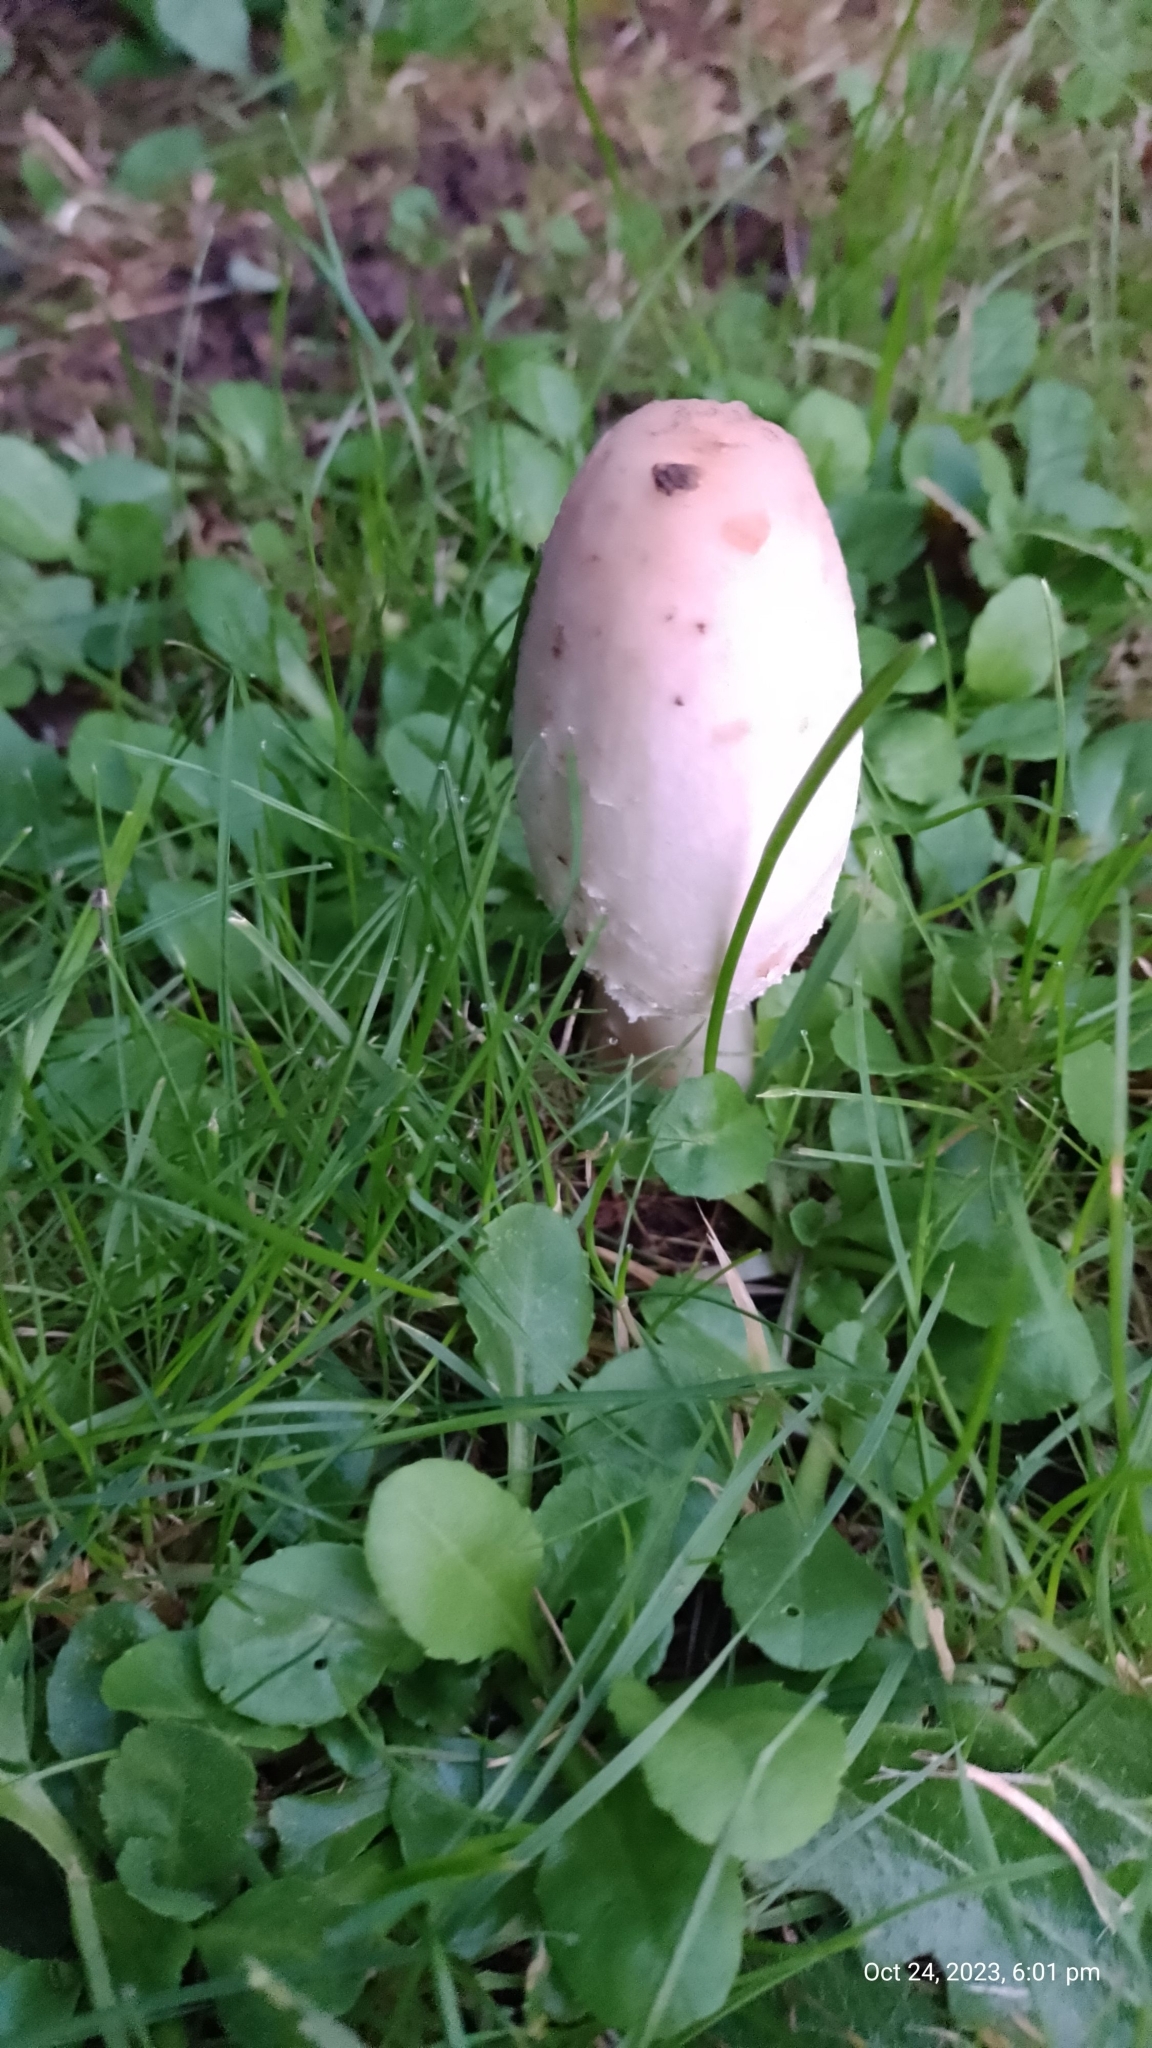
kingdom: Fungi
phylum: Basidiomycota
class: Agaricomycetes
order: Agaricales
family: Agaricaceae
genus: Coprinus
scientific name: Coprinus comatus
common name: Lawyer's wig
